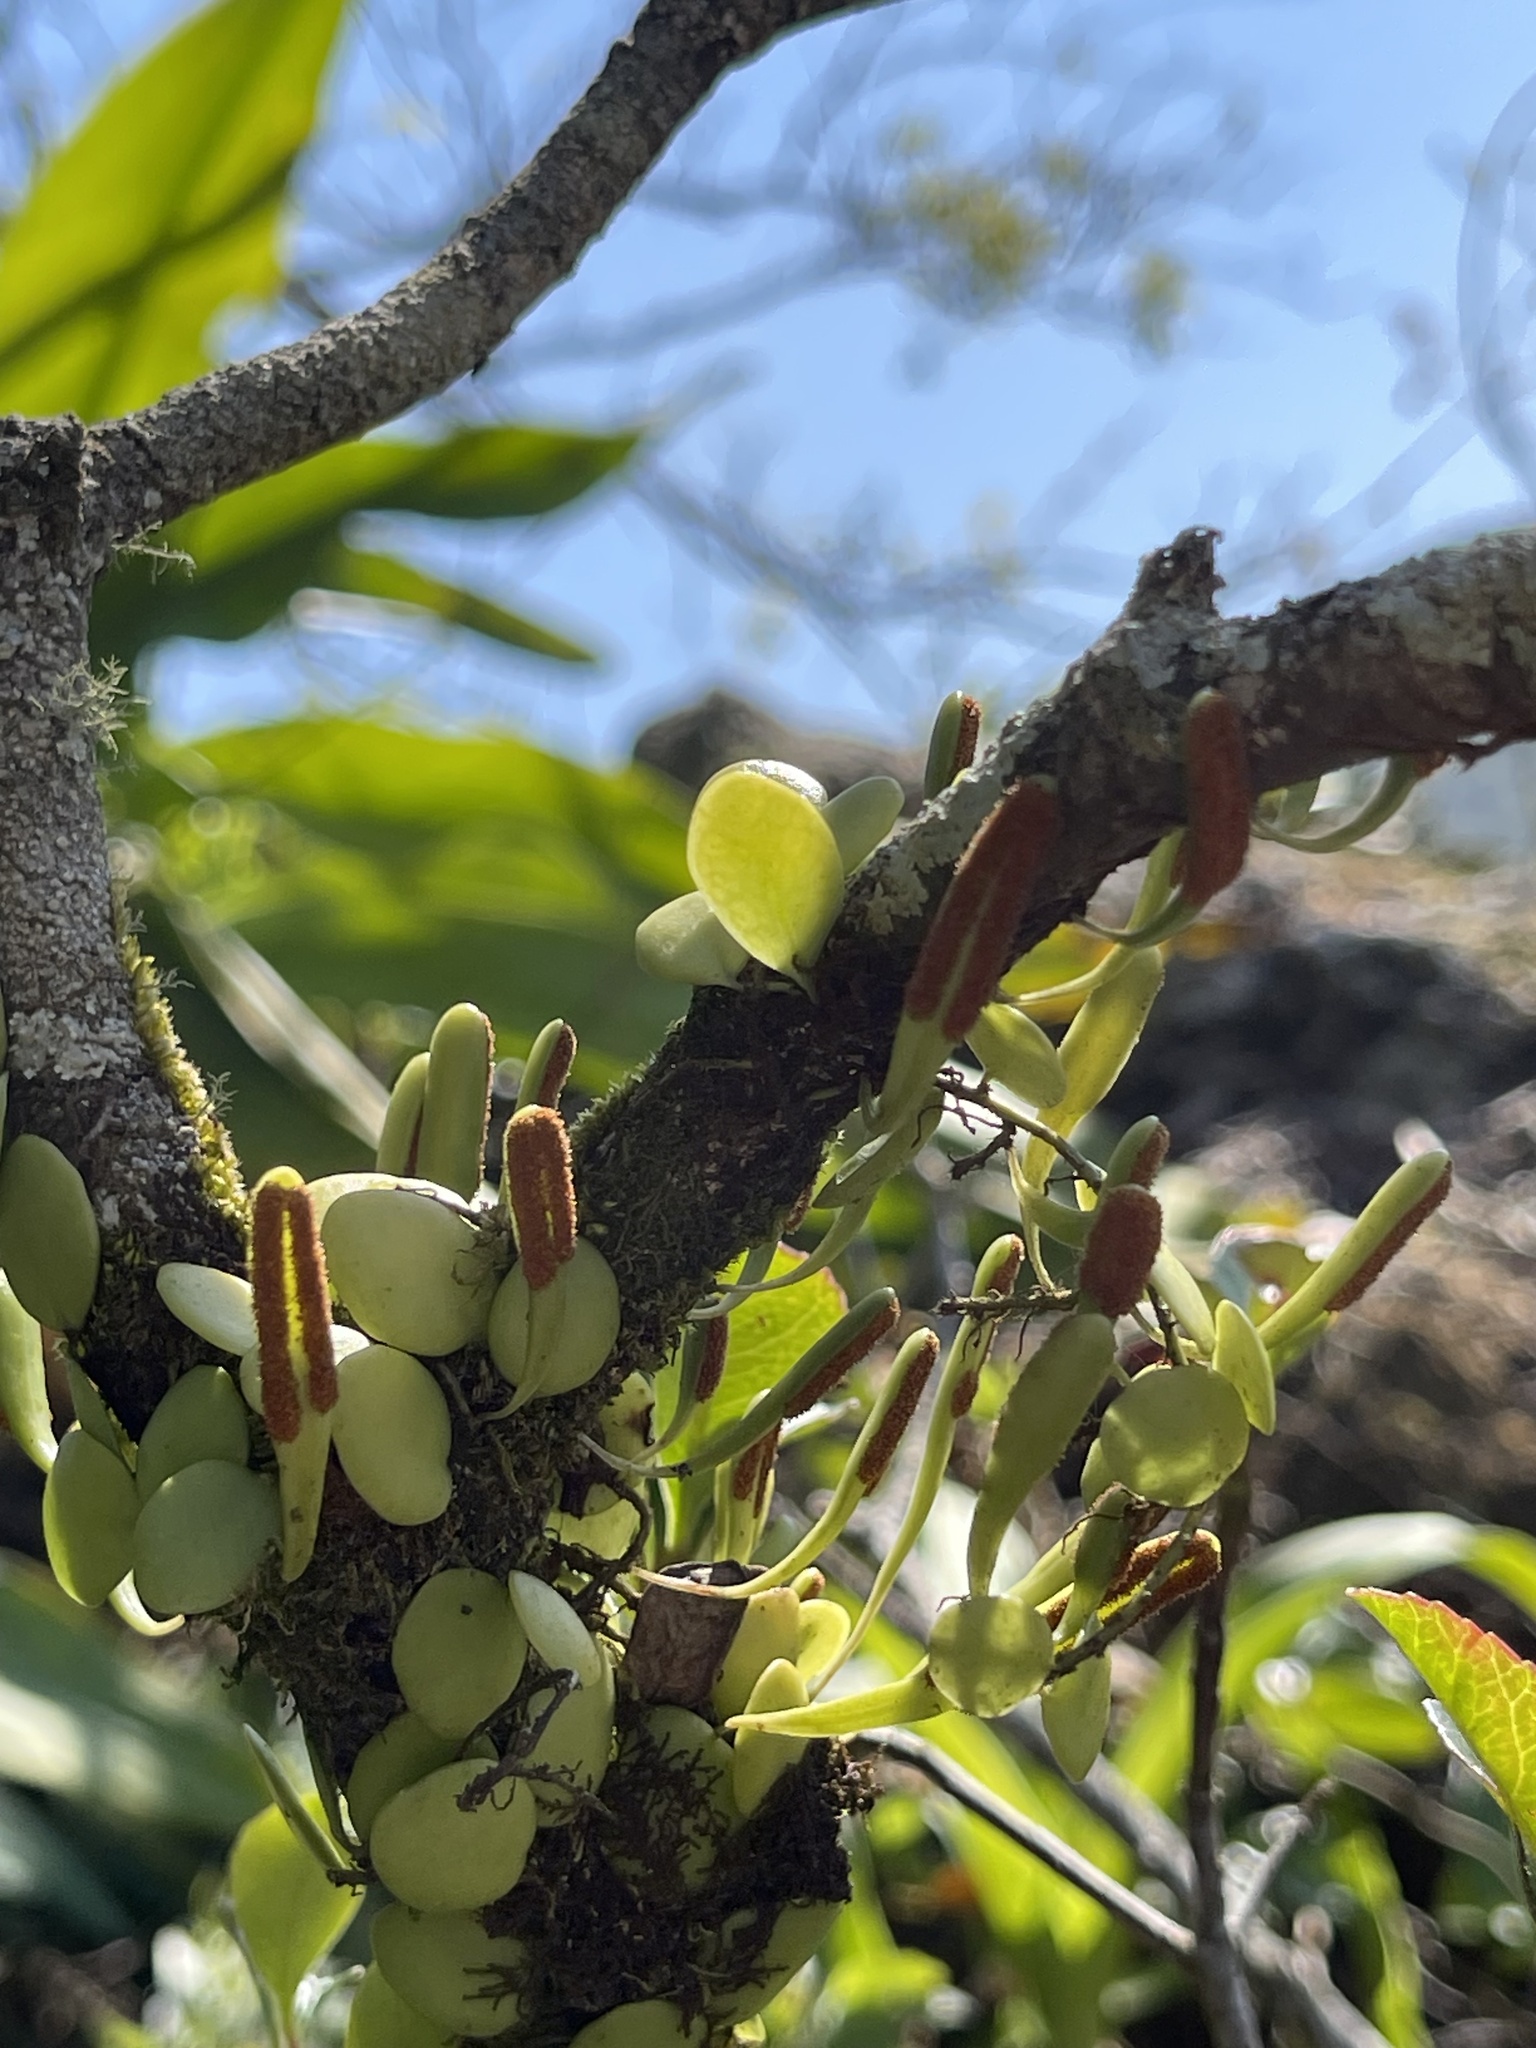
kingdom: Plantae
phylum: Tracheophyta
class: Polypodiopsida
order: Polypodiales
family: Polypodiaceae
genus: Lepisorus
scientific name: Lepisorus microphyllus
